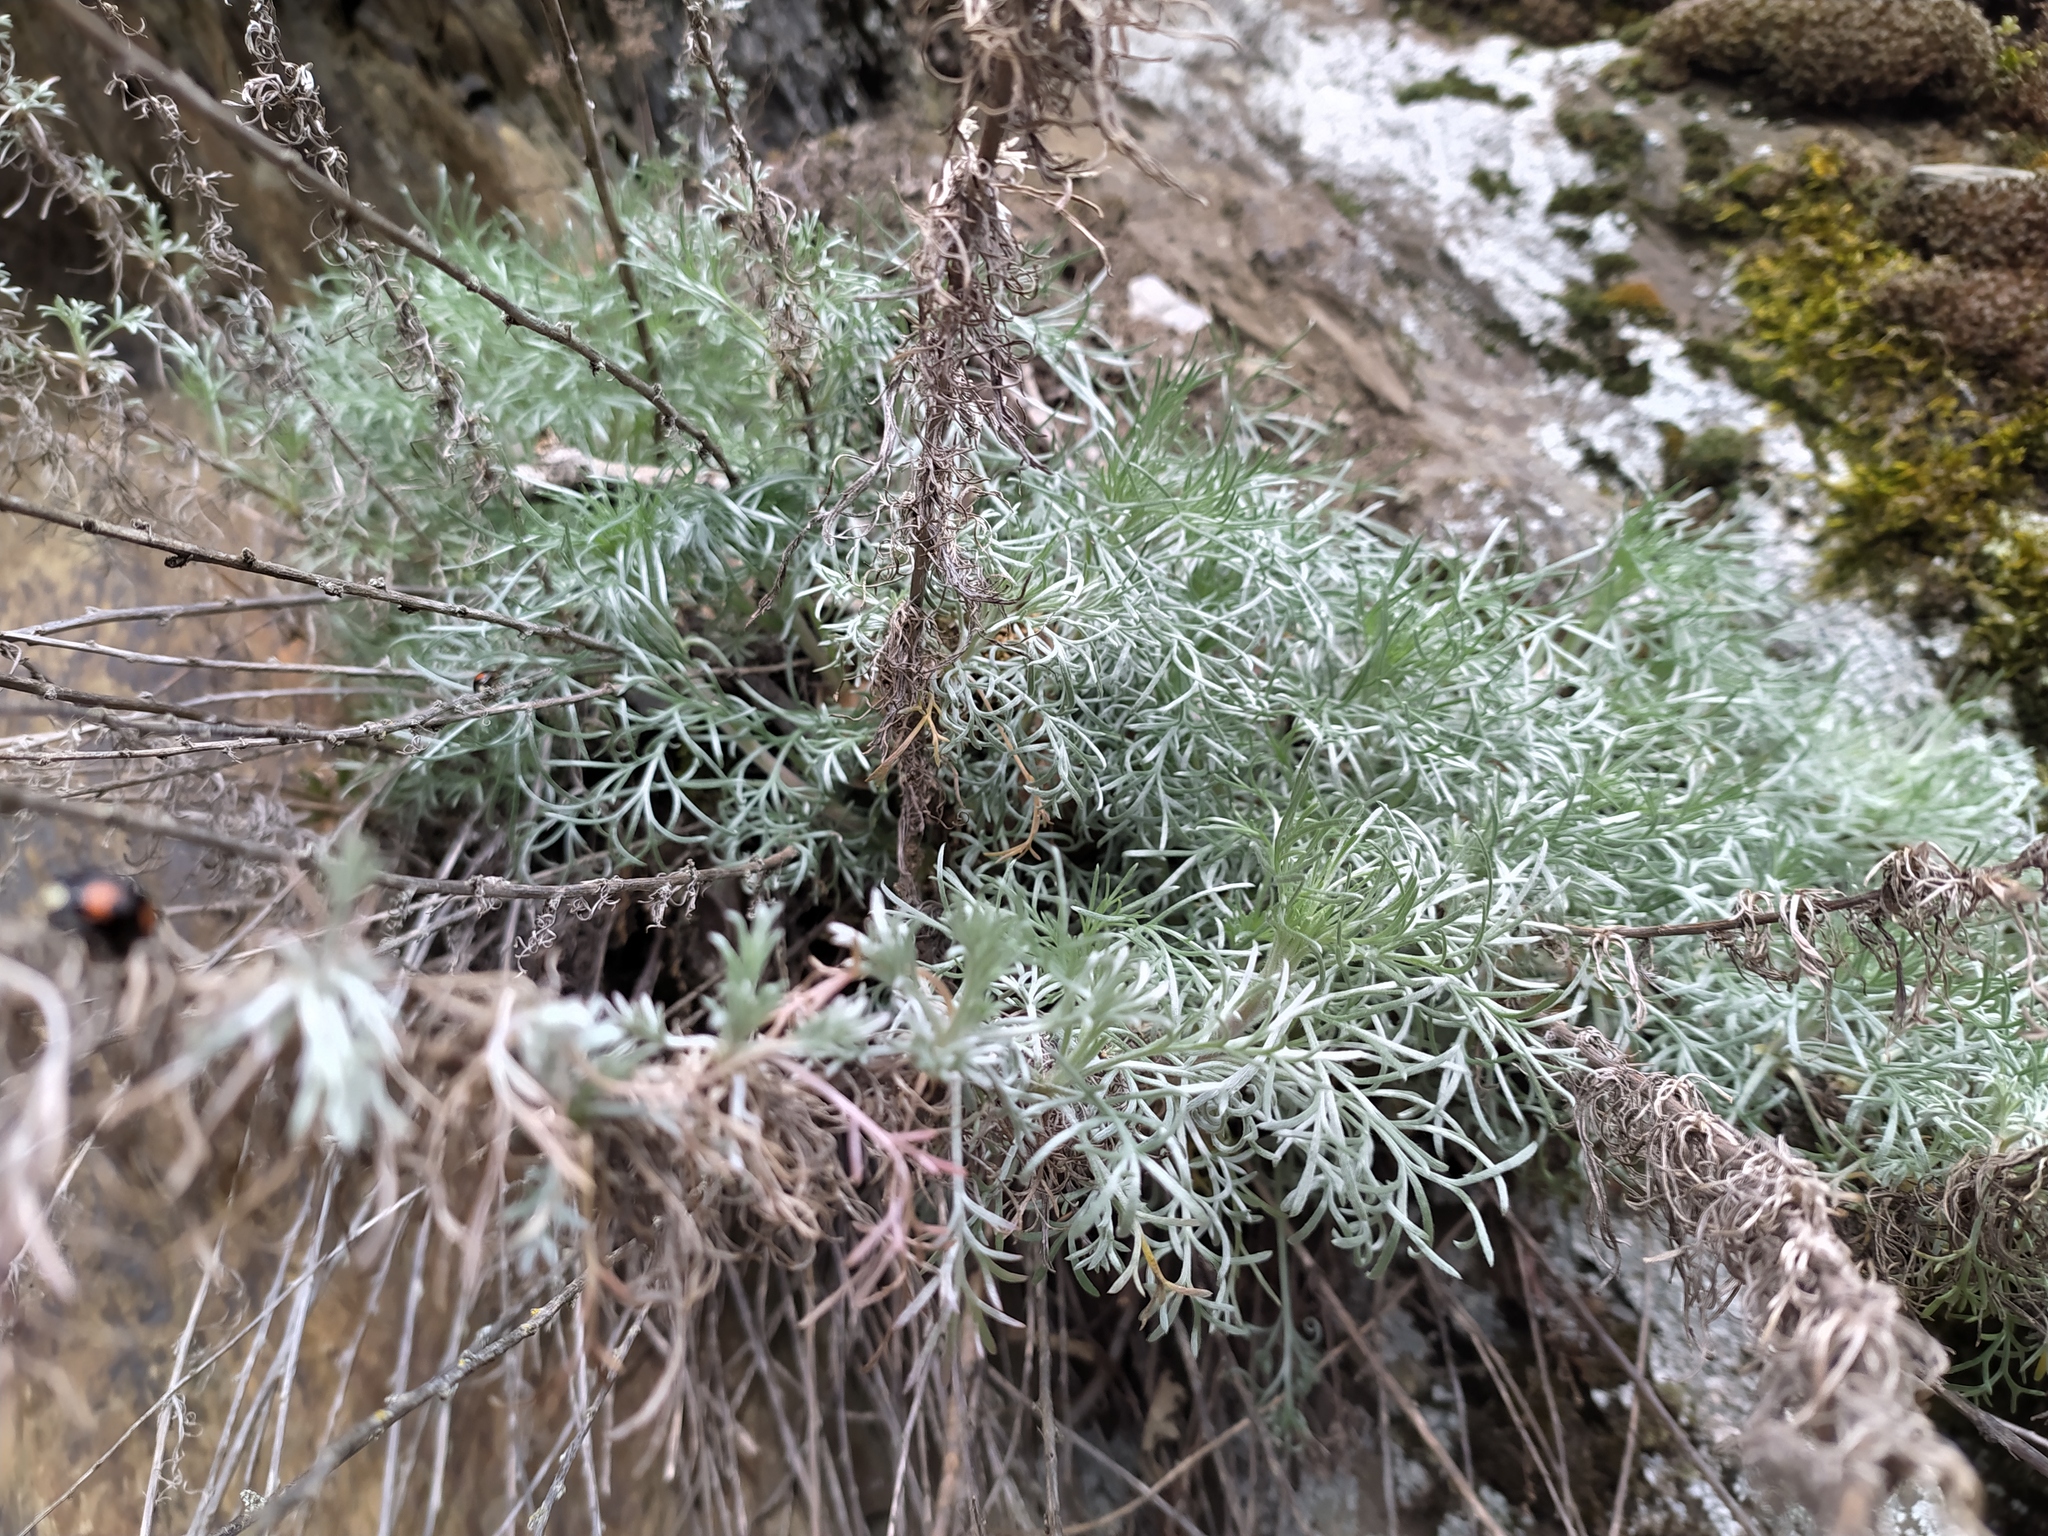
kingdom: Plantae
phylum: Tracheophyta
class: Magnoliopsida
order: Asterales
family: Asteraceae
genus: Artemisia
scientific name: Artemisia absinthium
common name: Wormwood
